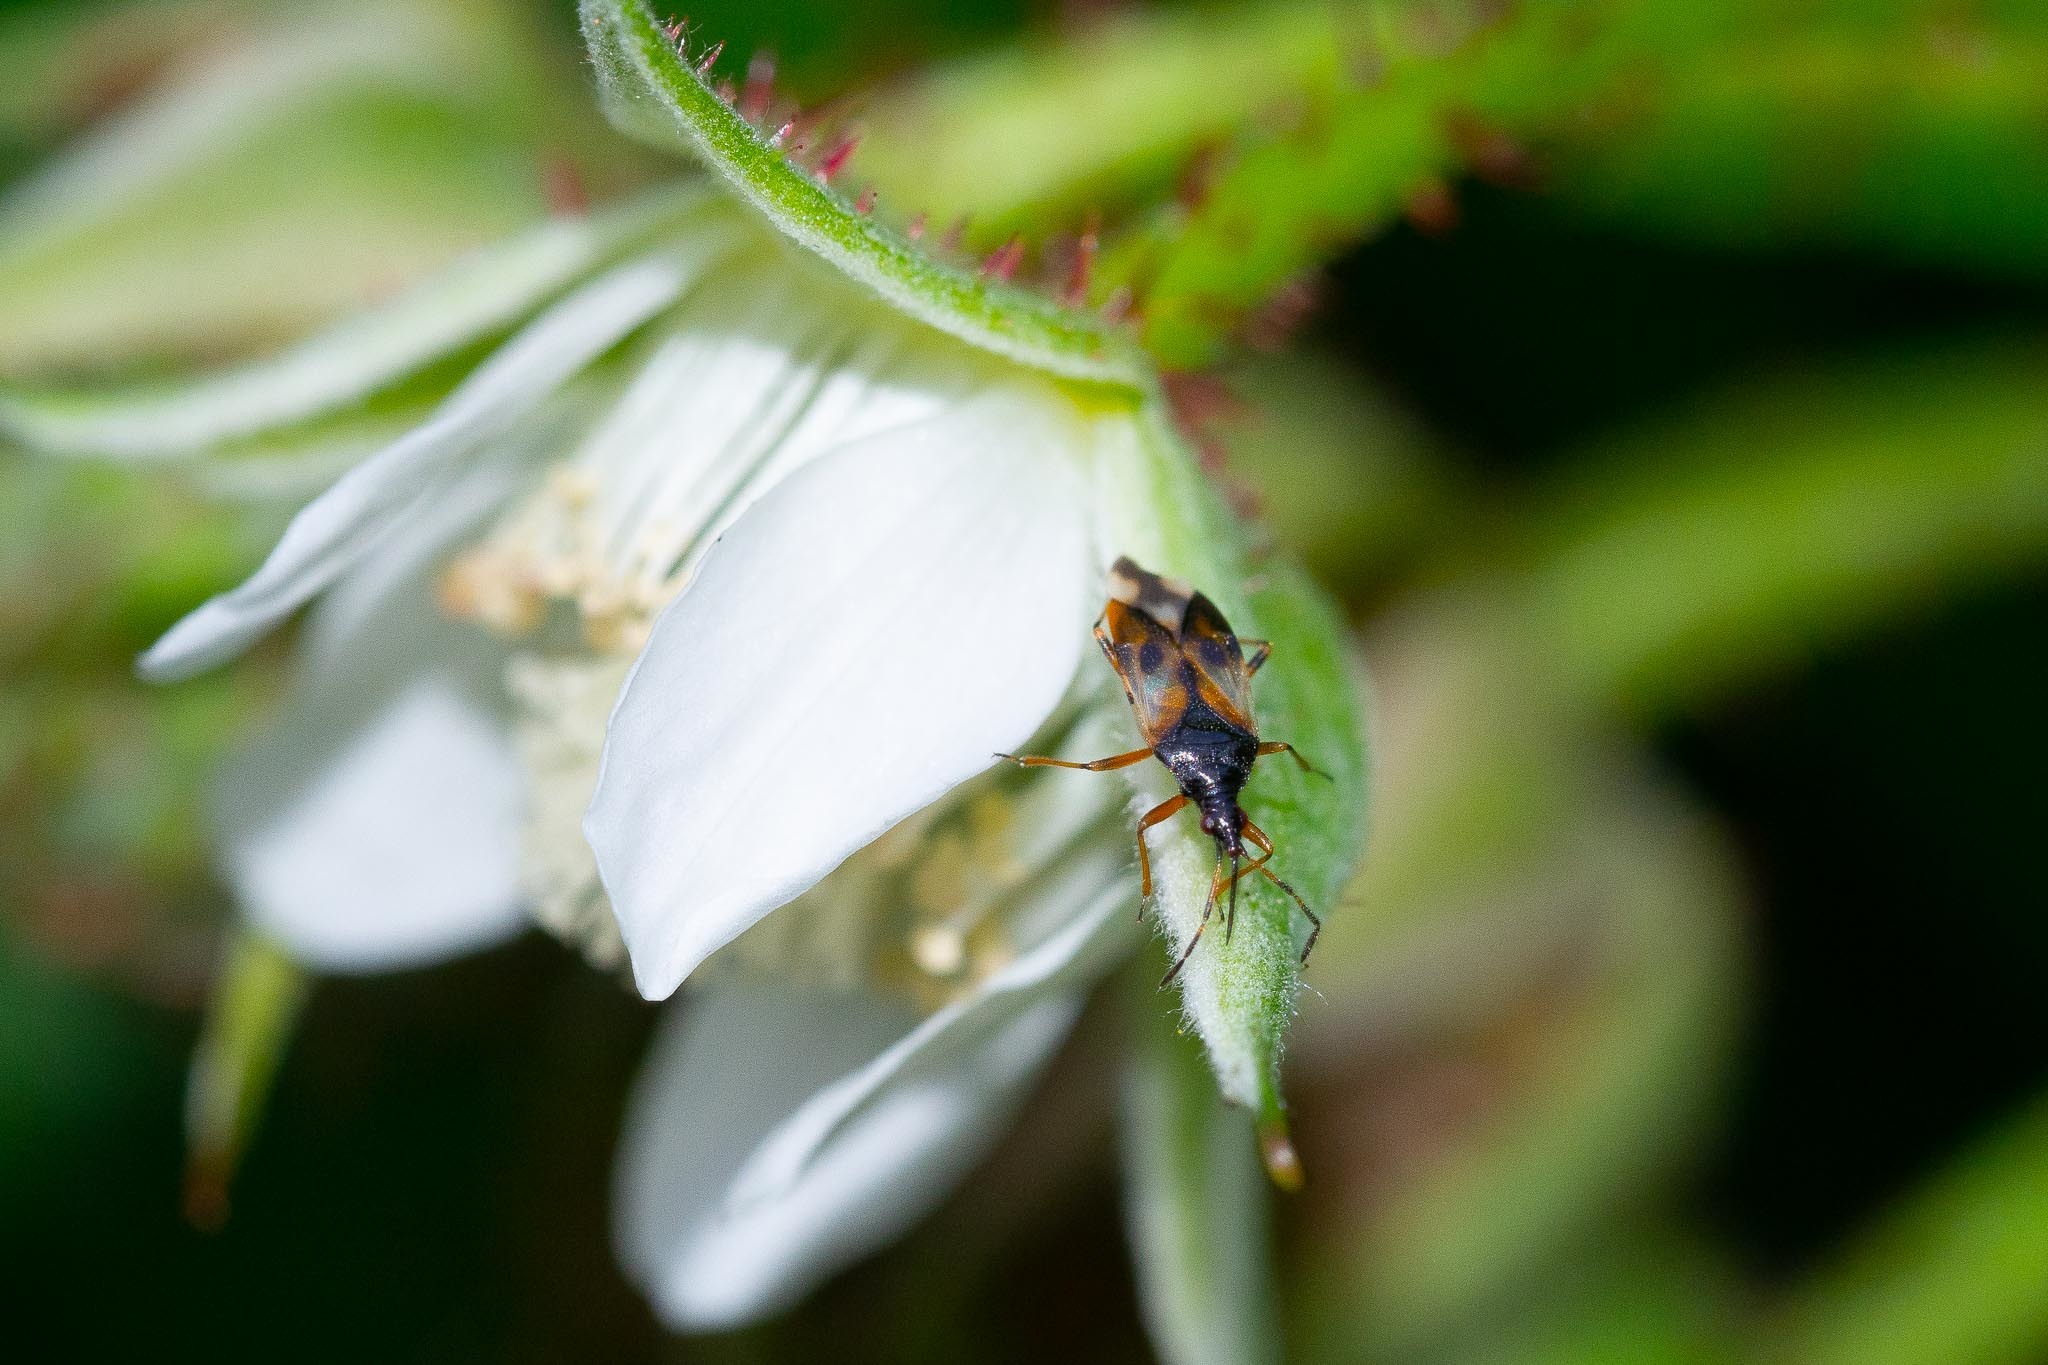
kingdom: Animalia
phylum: Arthropoda
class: Insecta
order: Hemiptera
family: Anthocoridae
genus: Anthocoris
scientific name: Anthocoris nemorum
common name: Minute pirate bug
